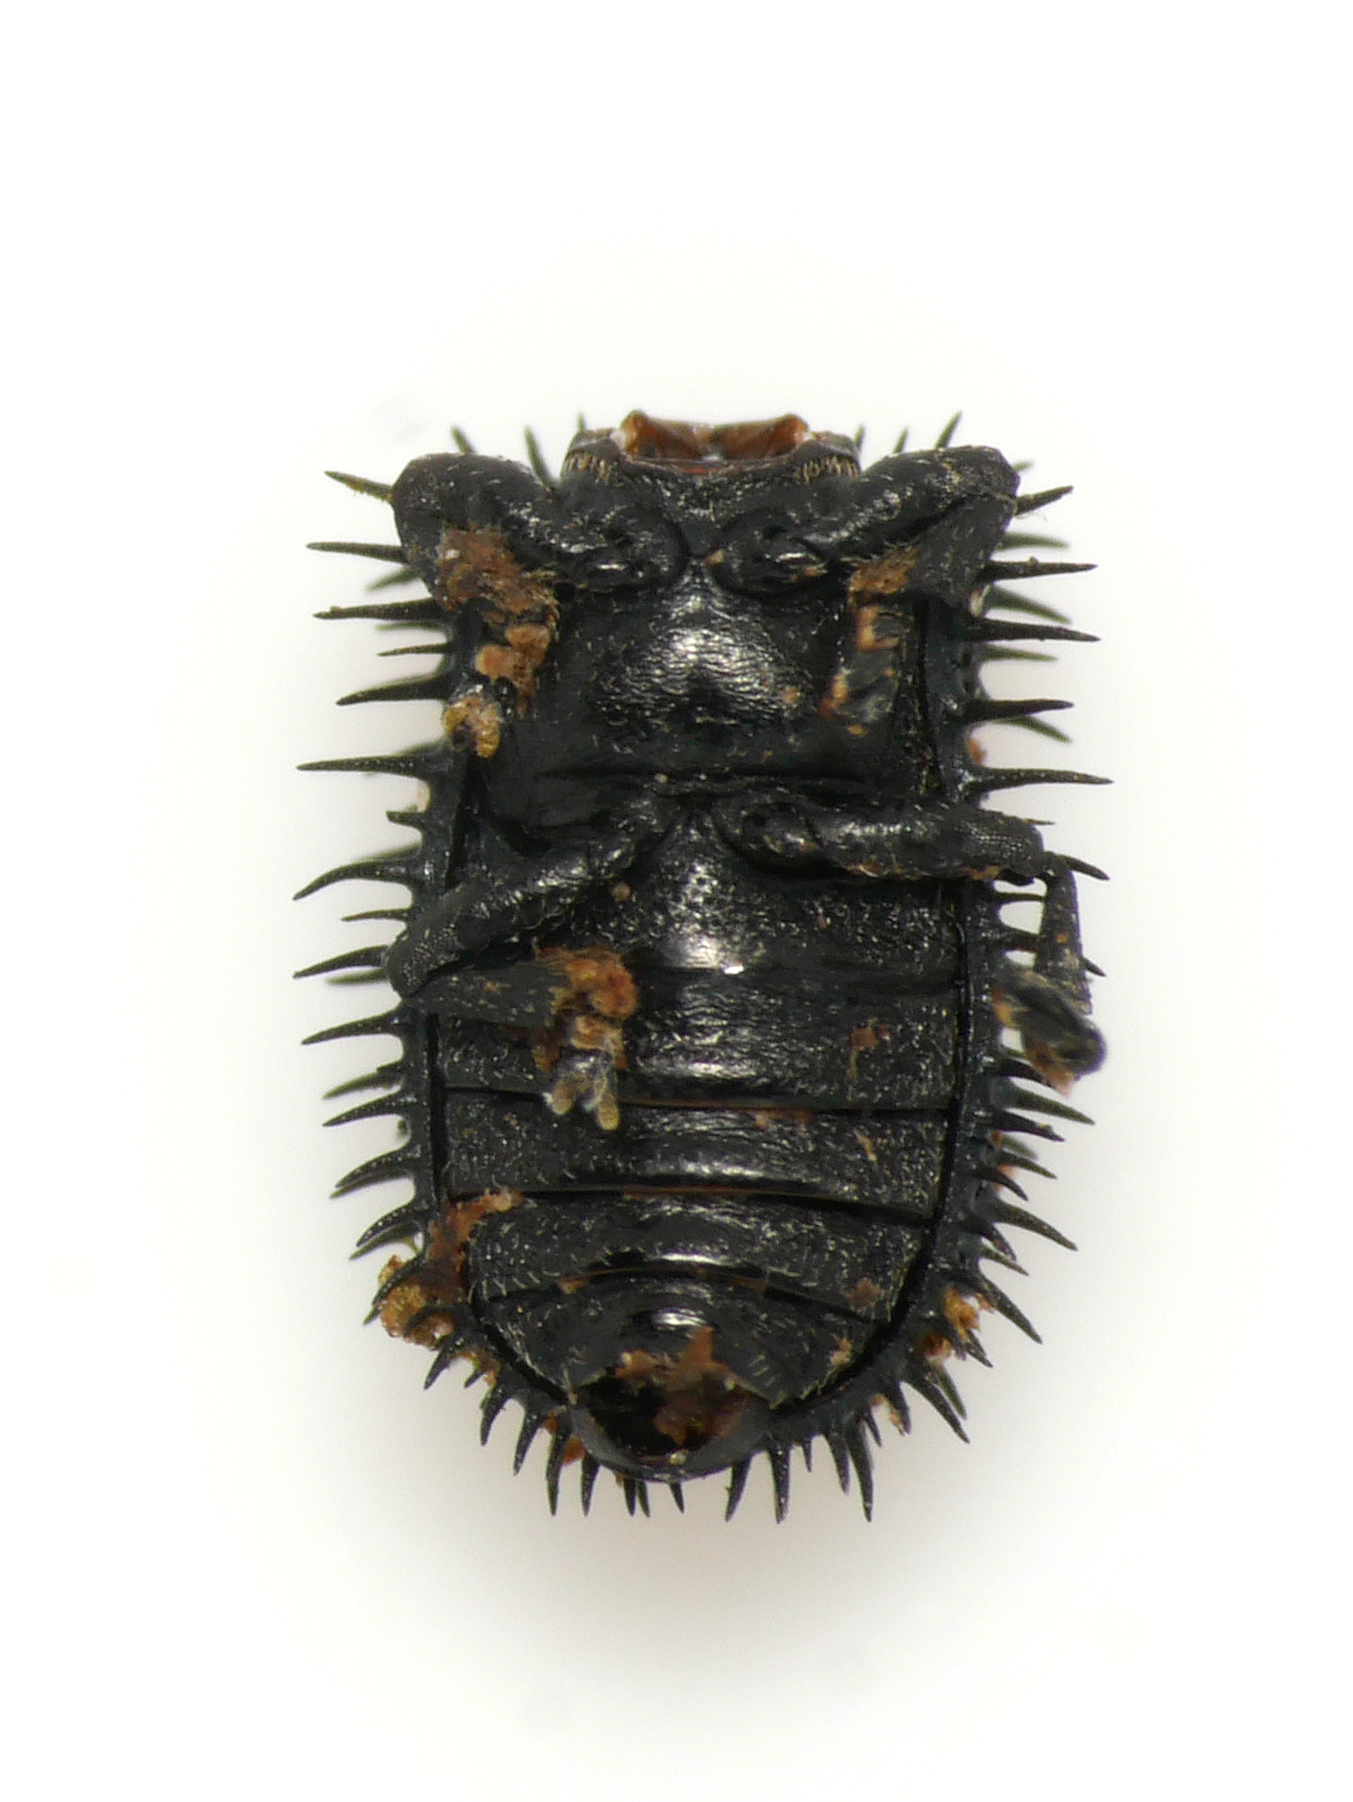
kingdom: Animalia
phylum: Arthropoda
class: Insecta
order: Coleoptera
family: Chrysomelidae
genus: Hispa
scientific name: Hispa atra
